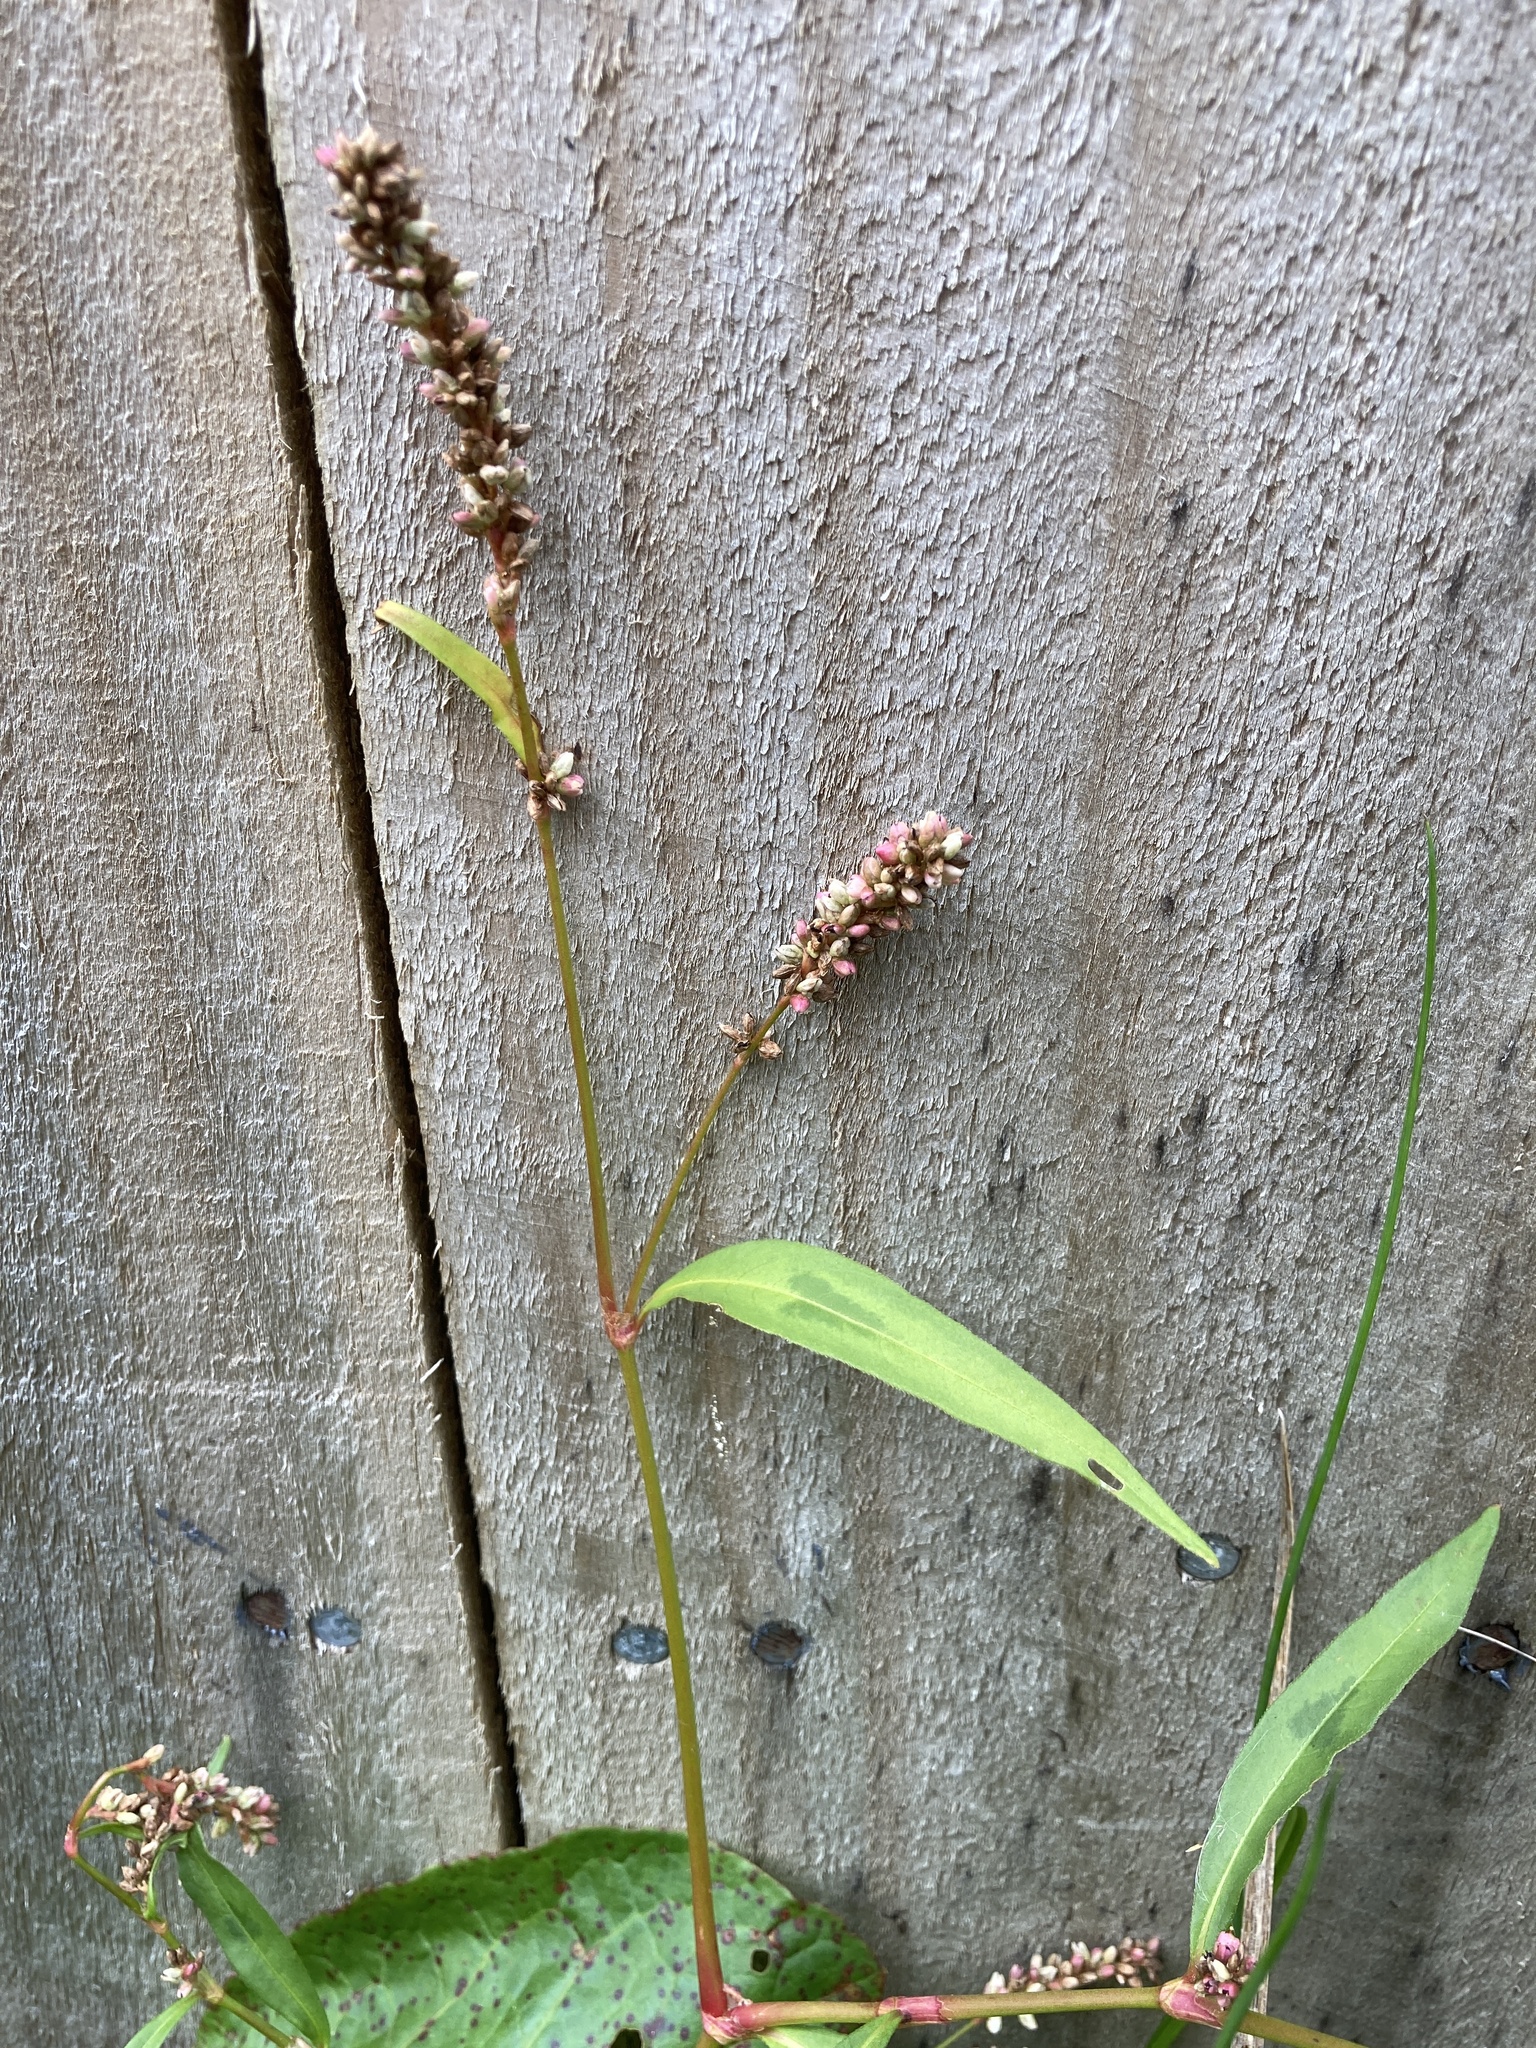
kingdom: Plantae
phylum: Tracheophyta
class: Magnoliopsida
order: Caryophyllales
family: Polygonaceae
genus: Persicaria
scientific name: Persicaria maculosa
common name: Redshank
